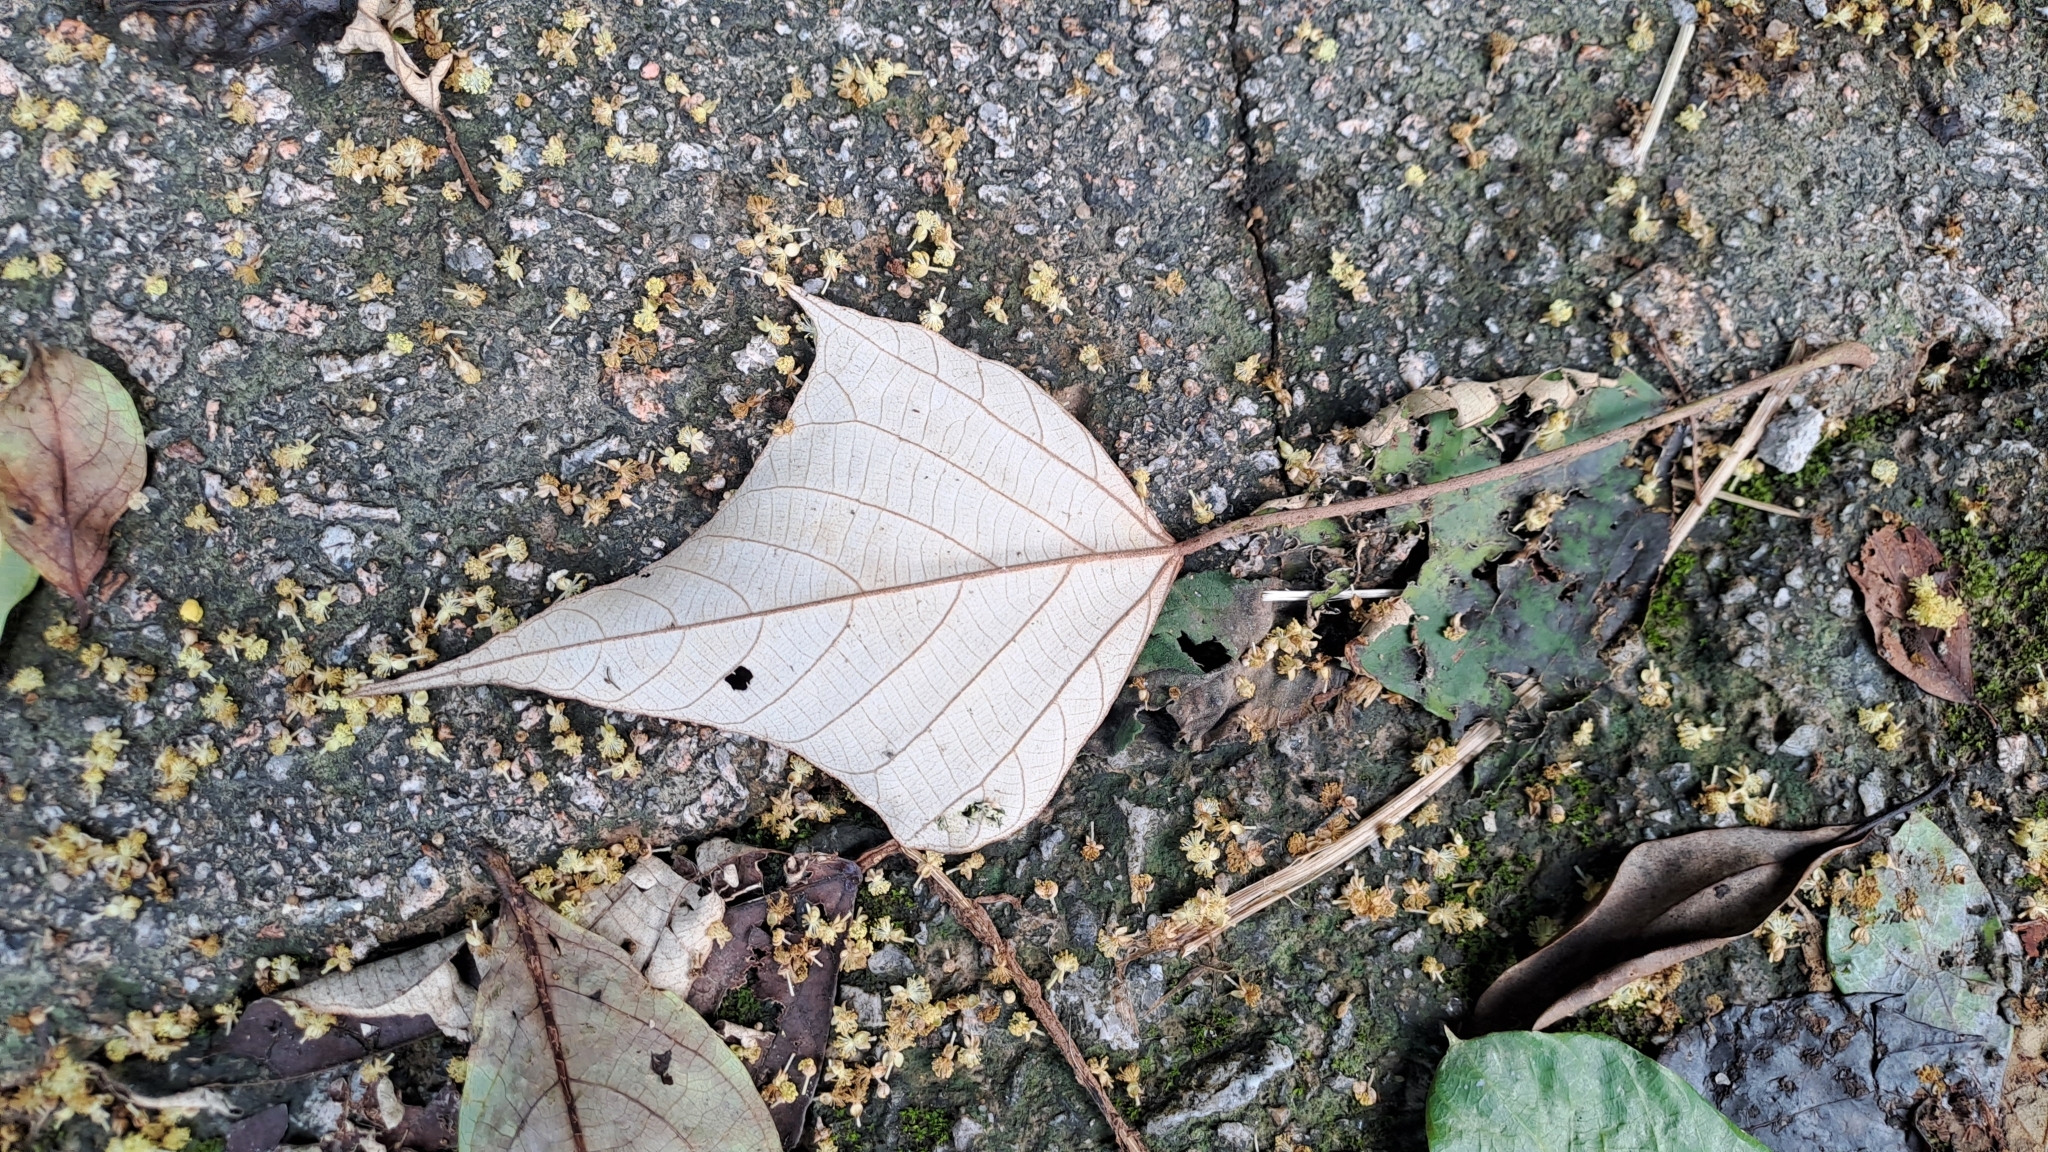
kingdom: Plantae
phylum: Tracheophyta
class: Magnoliopsida
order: Malpighiales
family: Euphorbiaceae
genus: Mallotus
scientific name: Mallotus paniculatus
